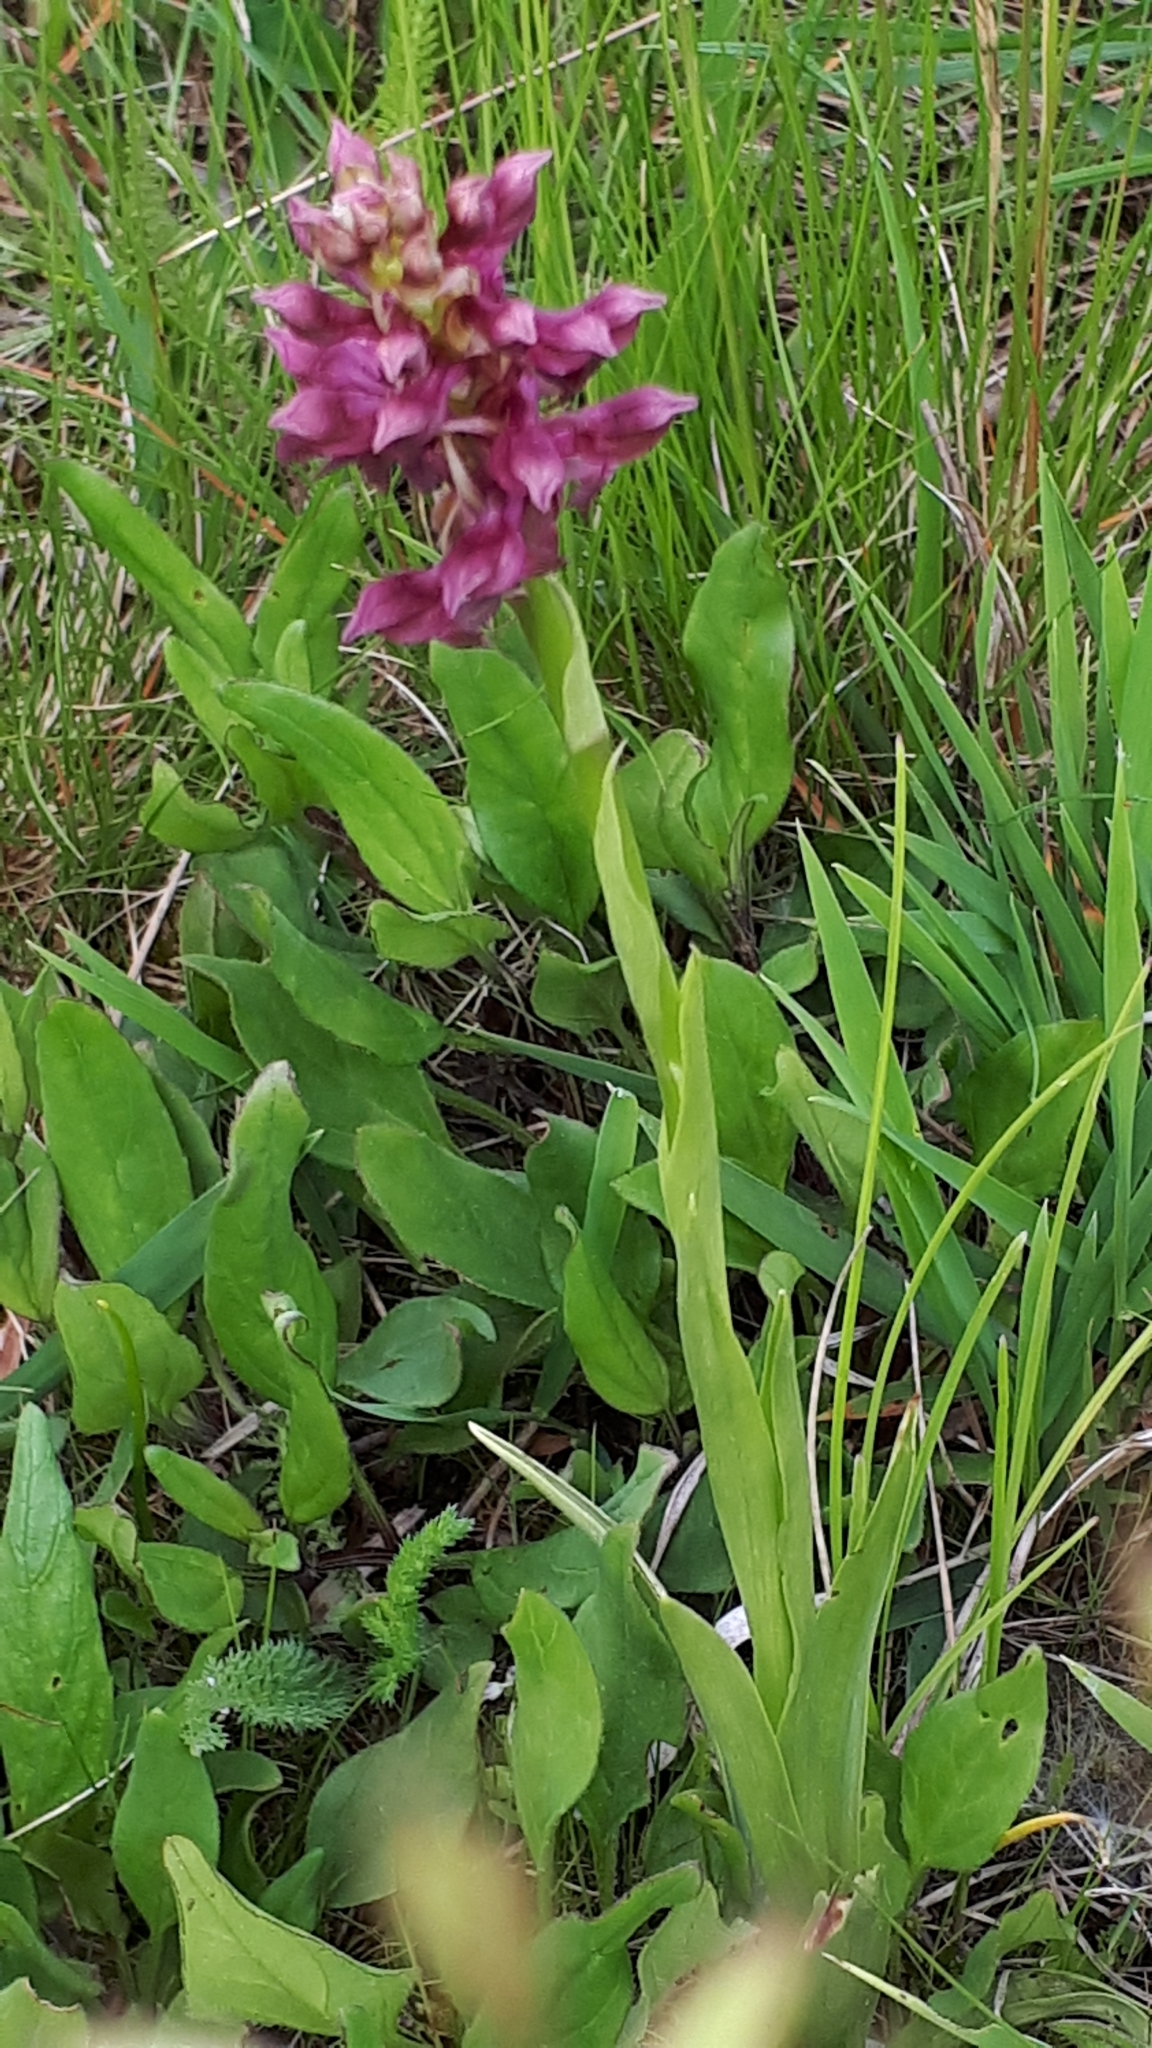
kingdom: Plantae
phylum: Tracheophyta
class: Liliopsida
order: Asparagales
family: Orchidaceae
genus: Anacamptis
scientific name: Anacamptis coriophora
